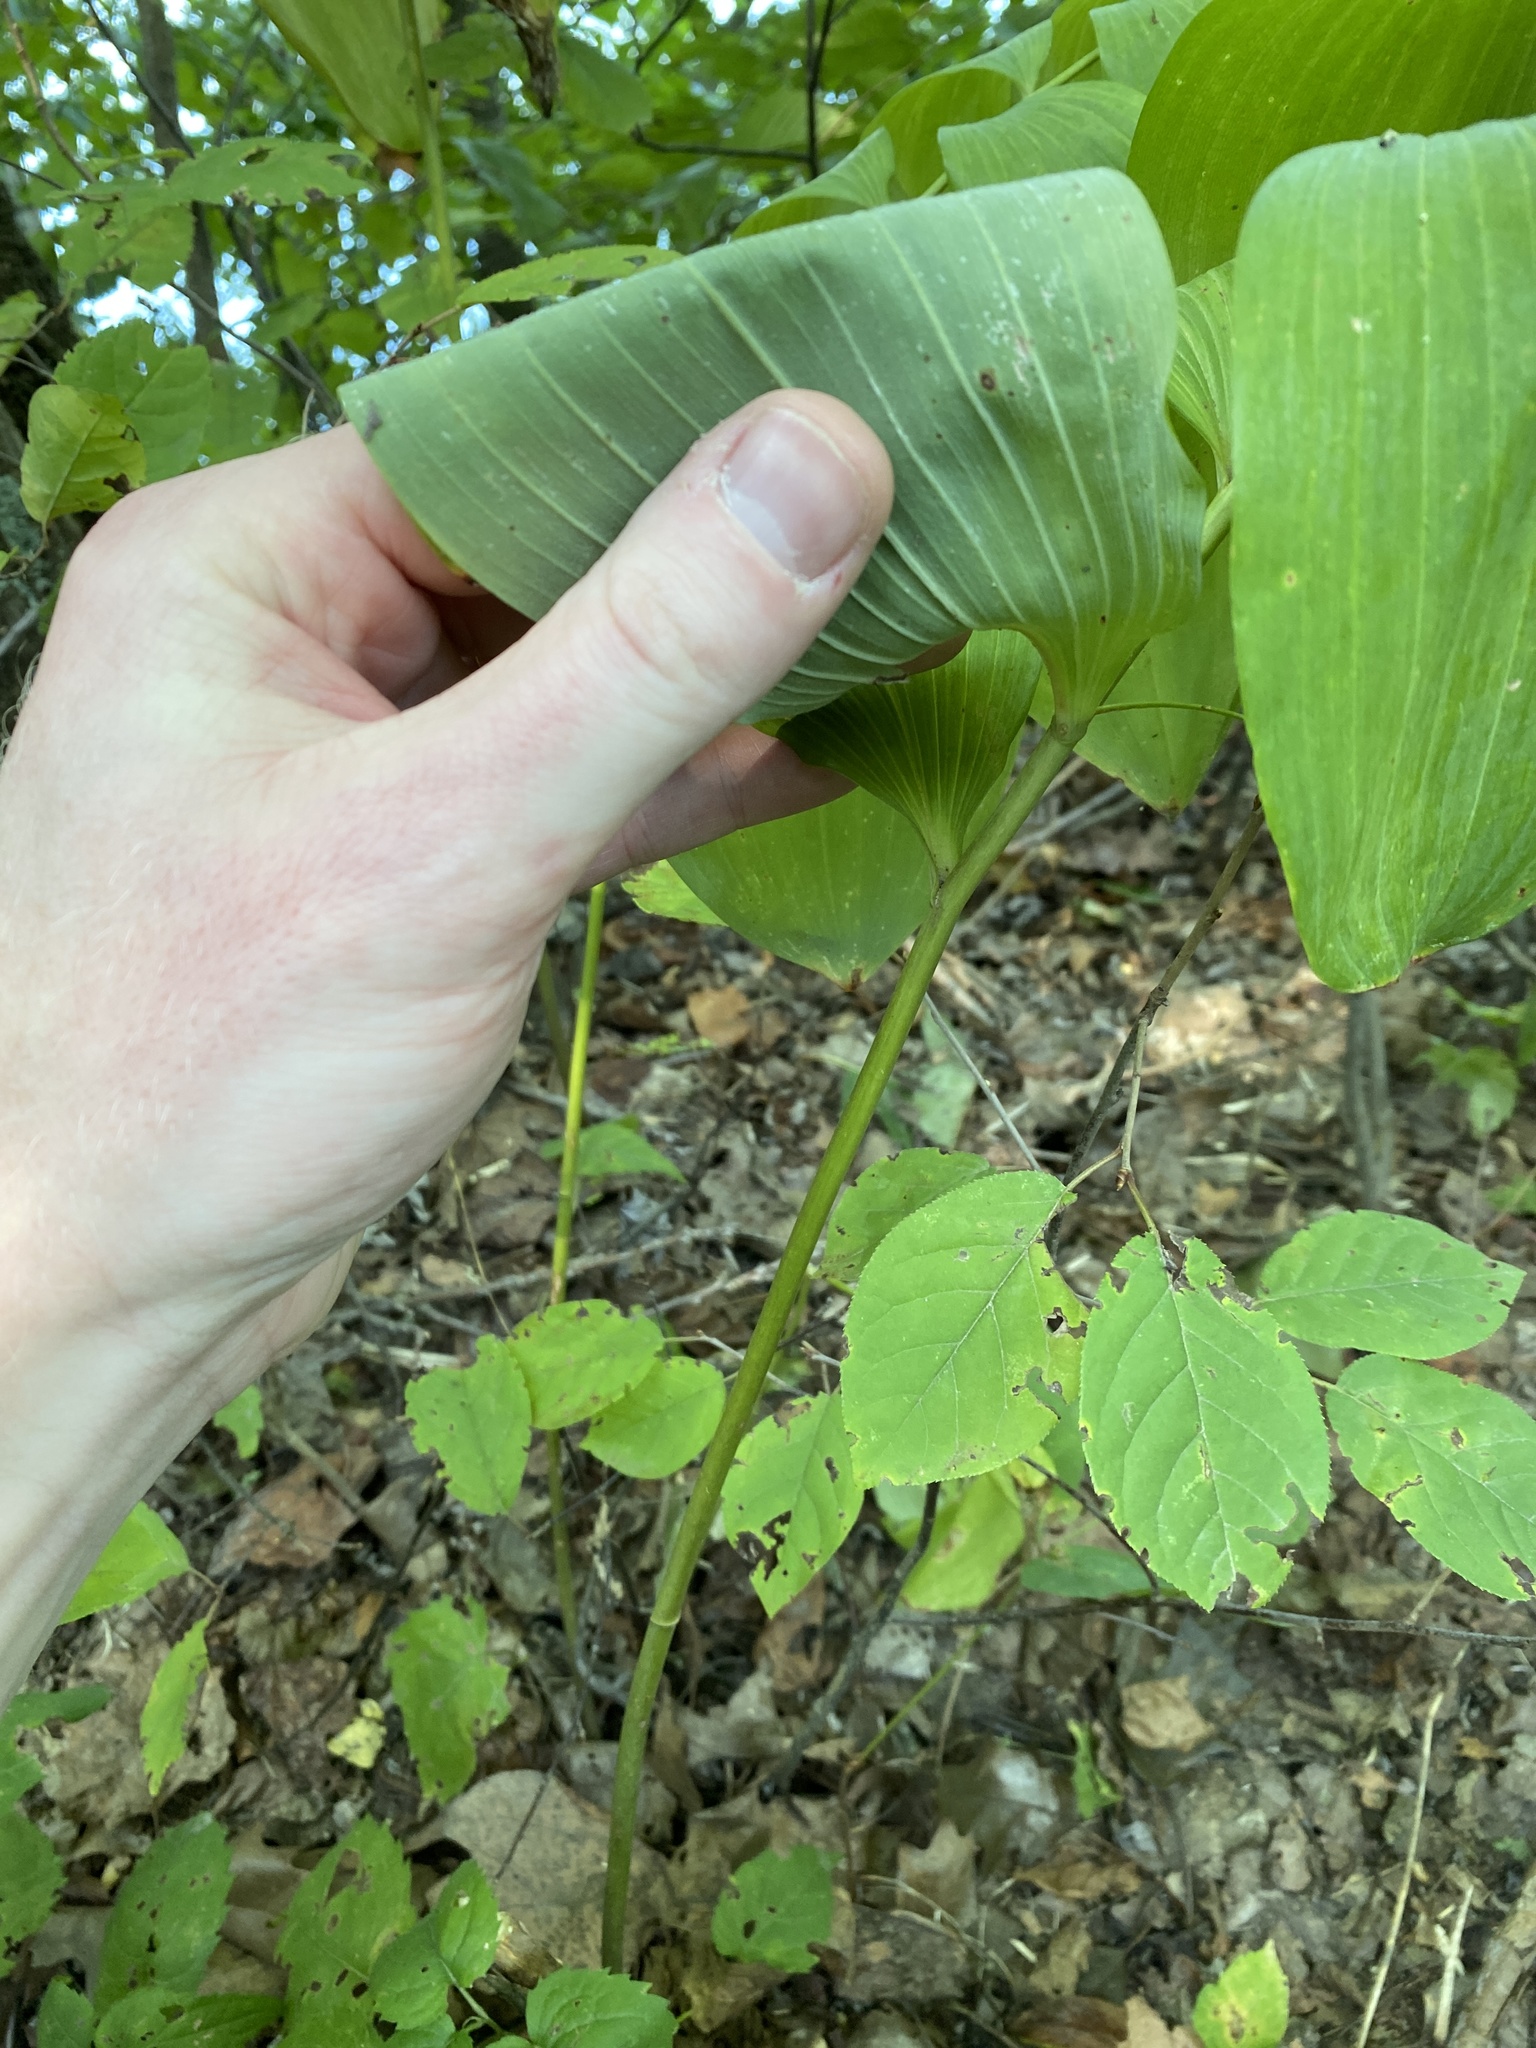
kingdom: Plantae
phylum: Tracheophyta
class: Liliopsida
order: Asparagales
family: Asparagaceae
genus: Polygonatum
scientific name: Polygonatum pubescens
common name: Downy solomon's seal
